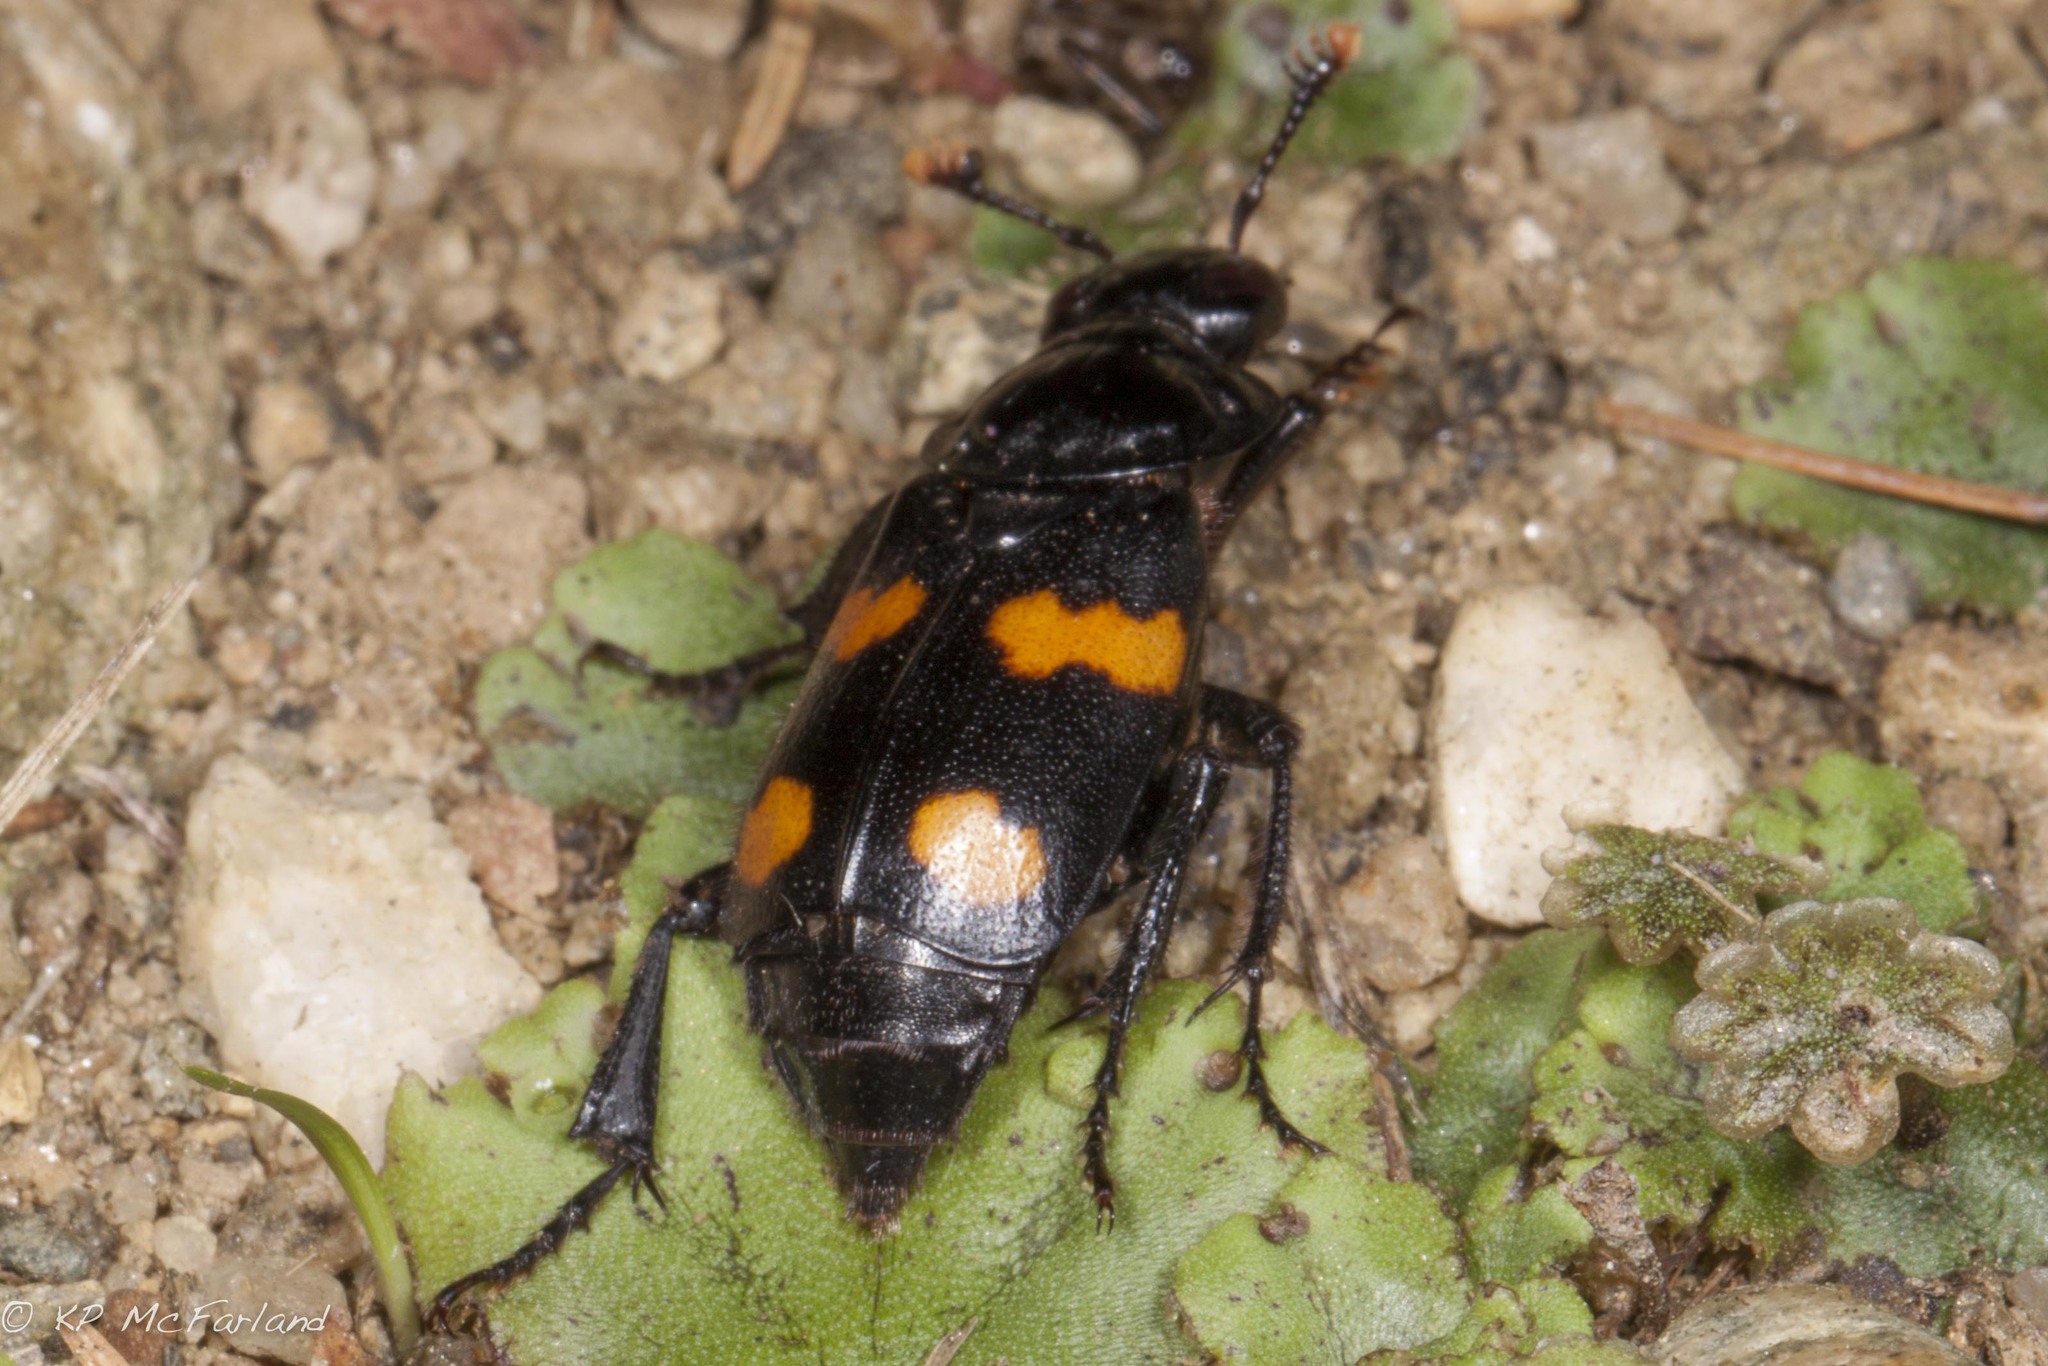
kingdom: Animalia
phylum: Arthropoda
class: Insecta
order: Coleoptera
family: Staphylinidae
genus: Nicrophorus
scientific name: Nicrophorus orbicollis
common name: Roundneck sexton beetle
